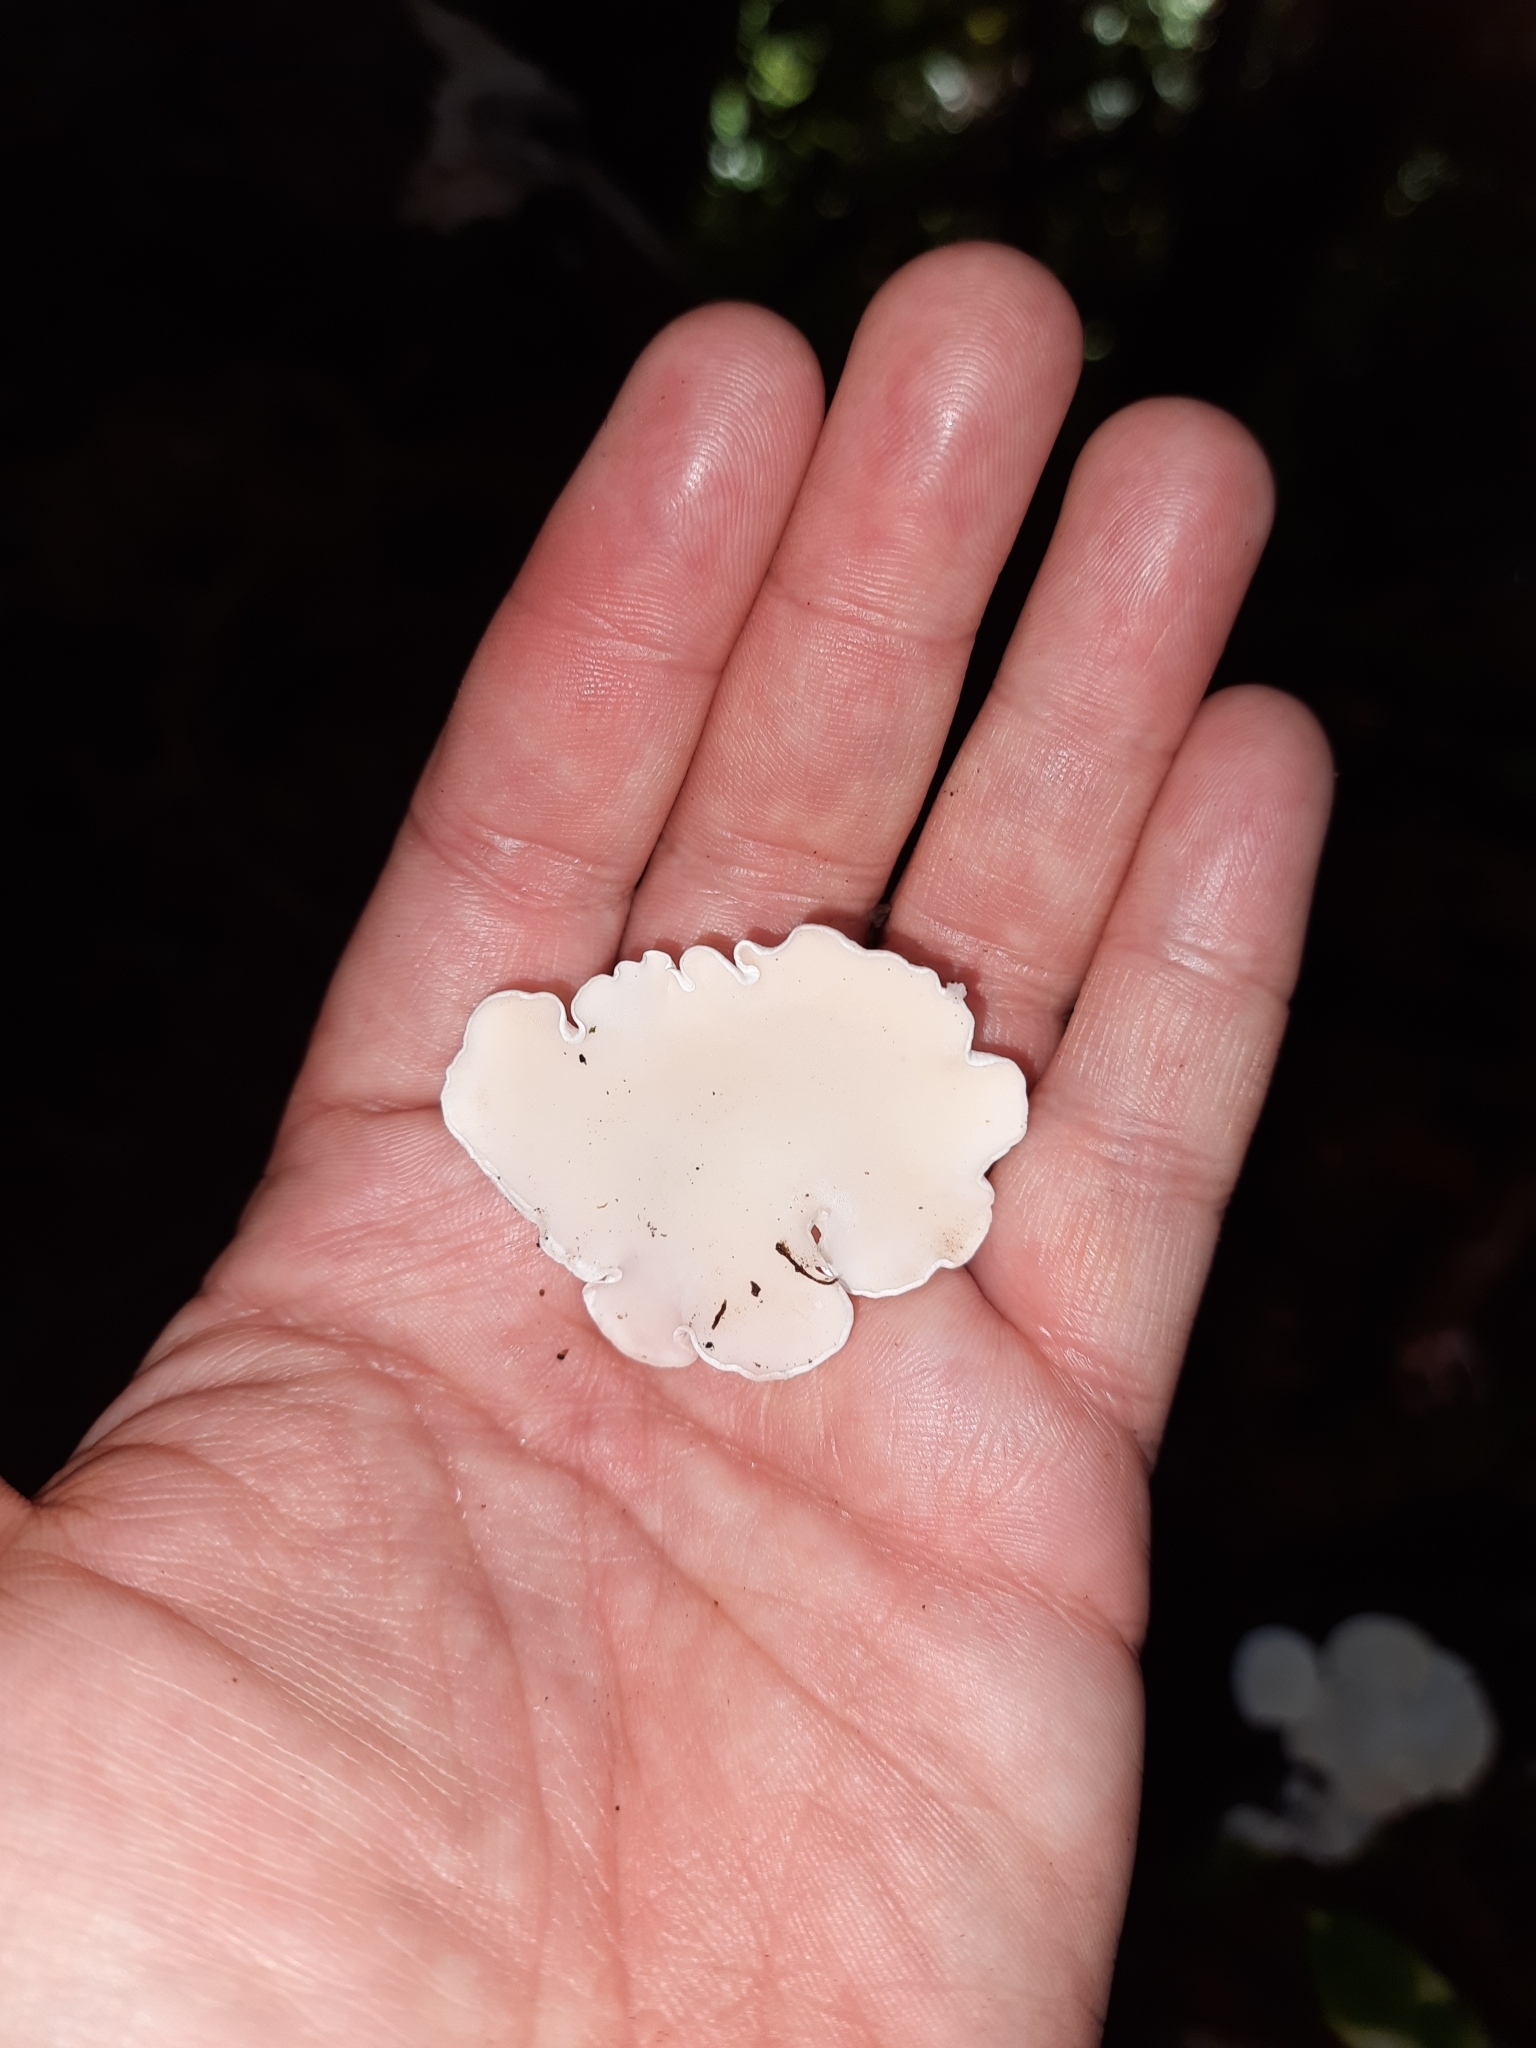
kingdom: Fungi
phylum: Basidiomycota
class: Agaricomycetes
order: Polyporales
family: Irpicaceae
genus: Gloeoporus
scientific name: Gloeoporus phlebophorus
